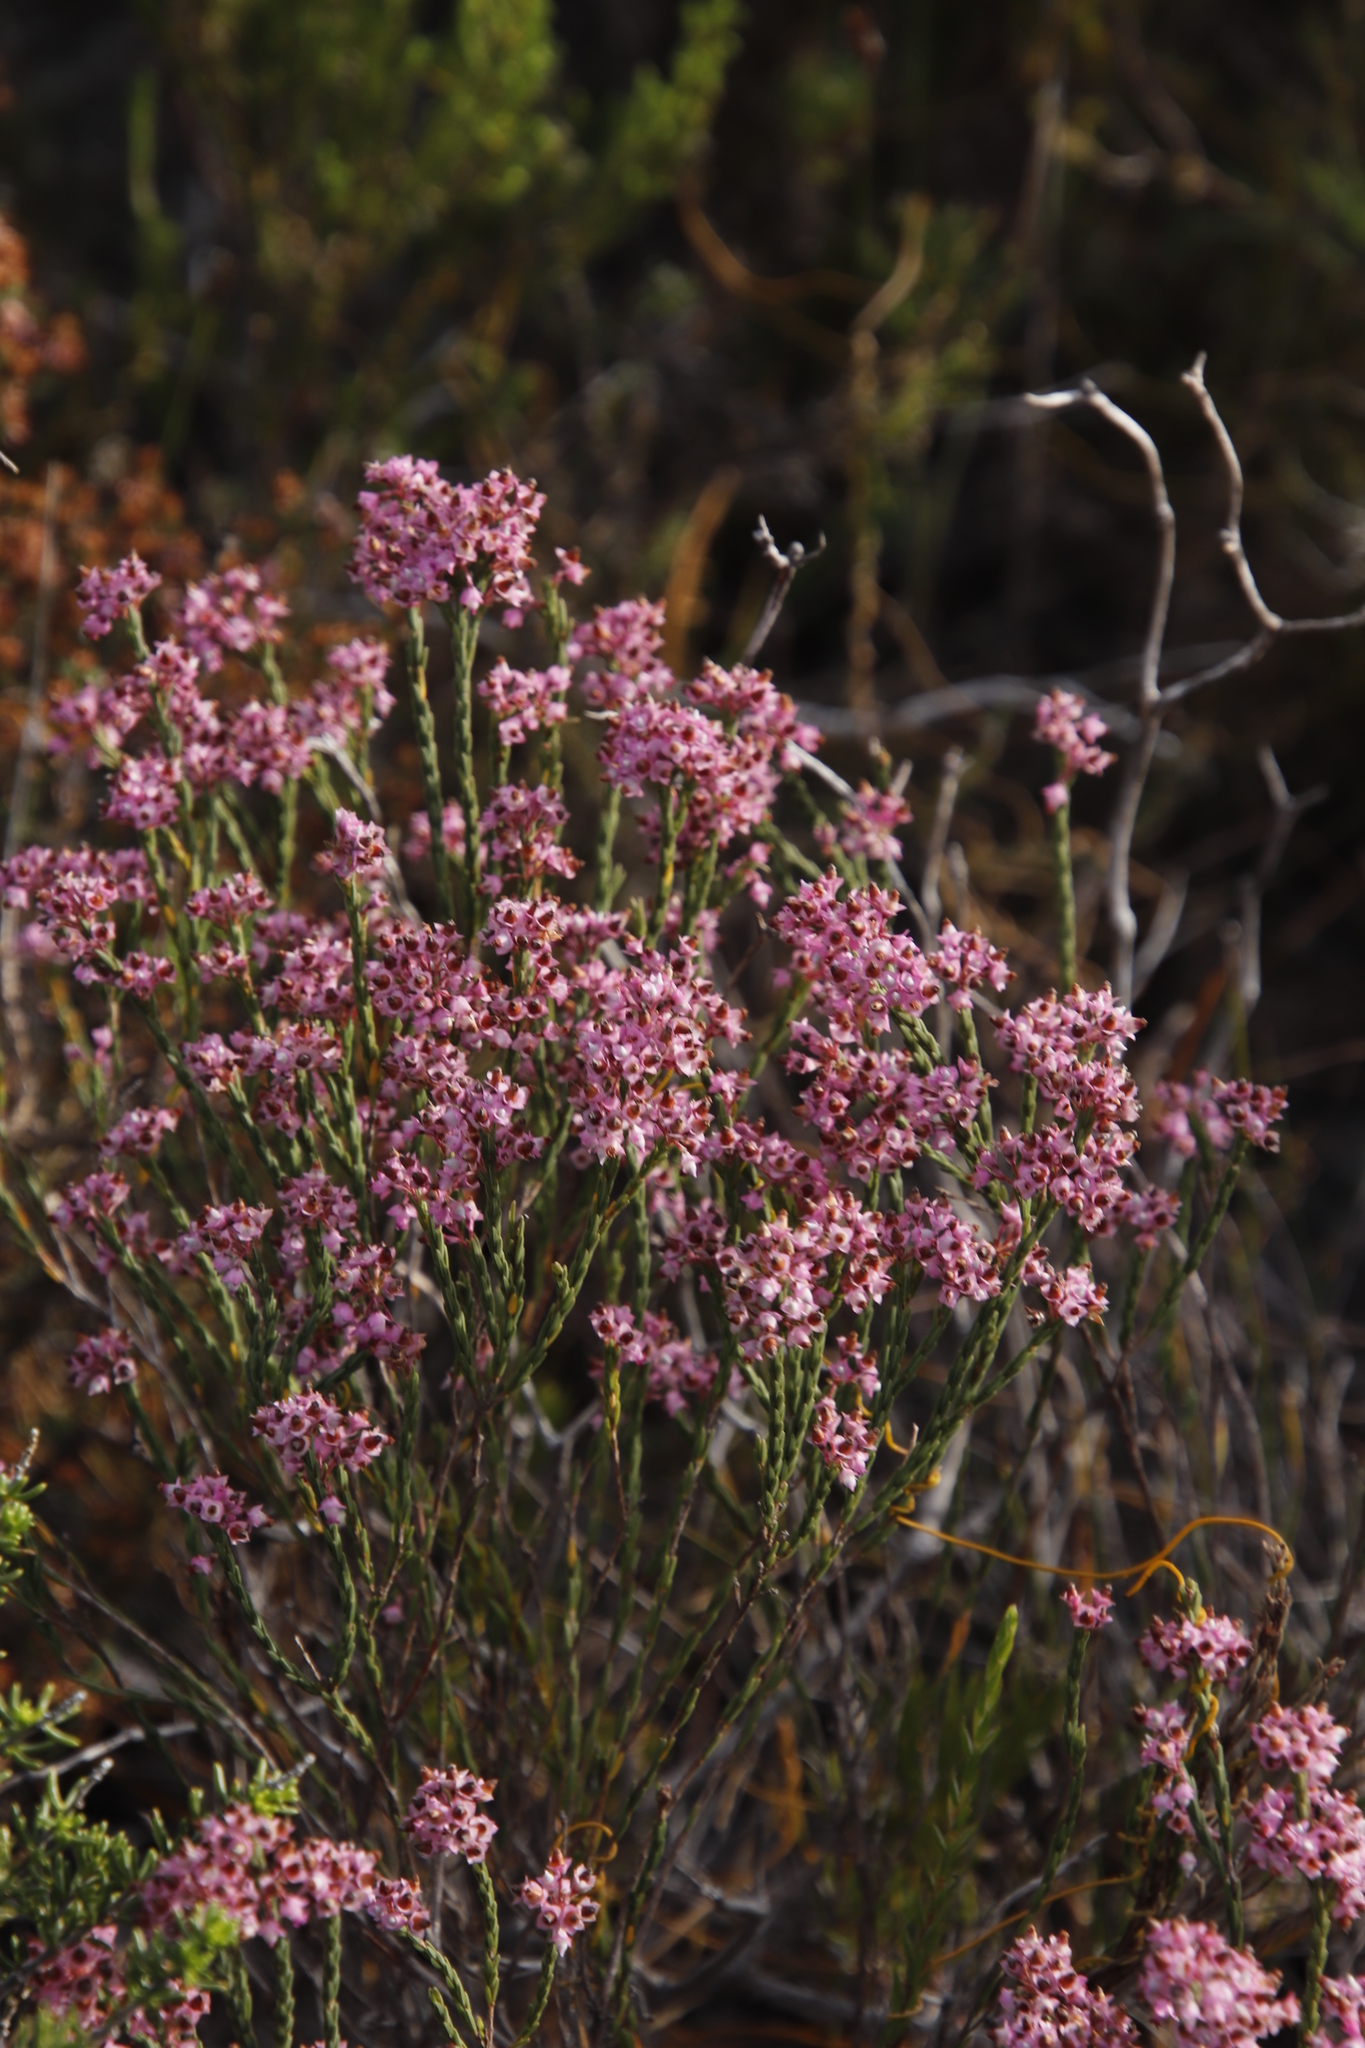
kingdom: Plantae
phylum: Tracheophyta
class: Magnoliopsida
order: Ericales
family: Ericaceae
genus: Erica
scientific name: Erica corifolia
